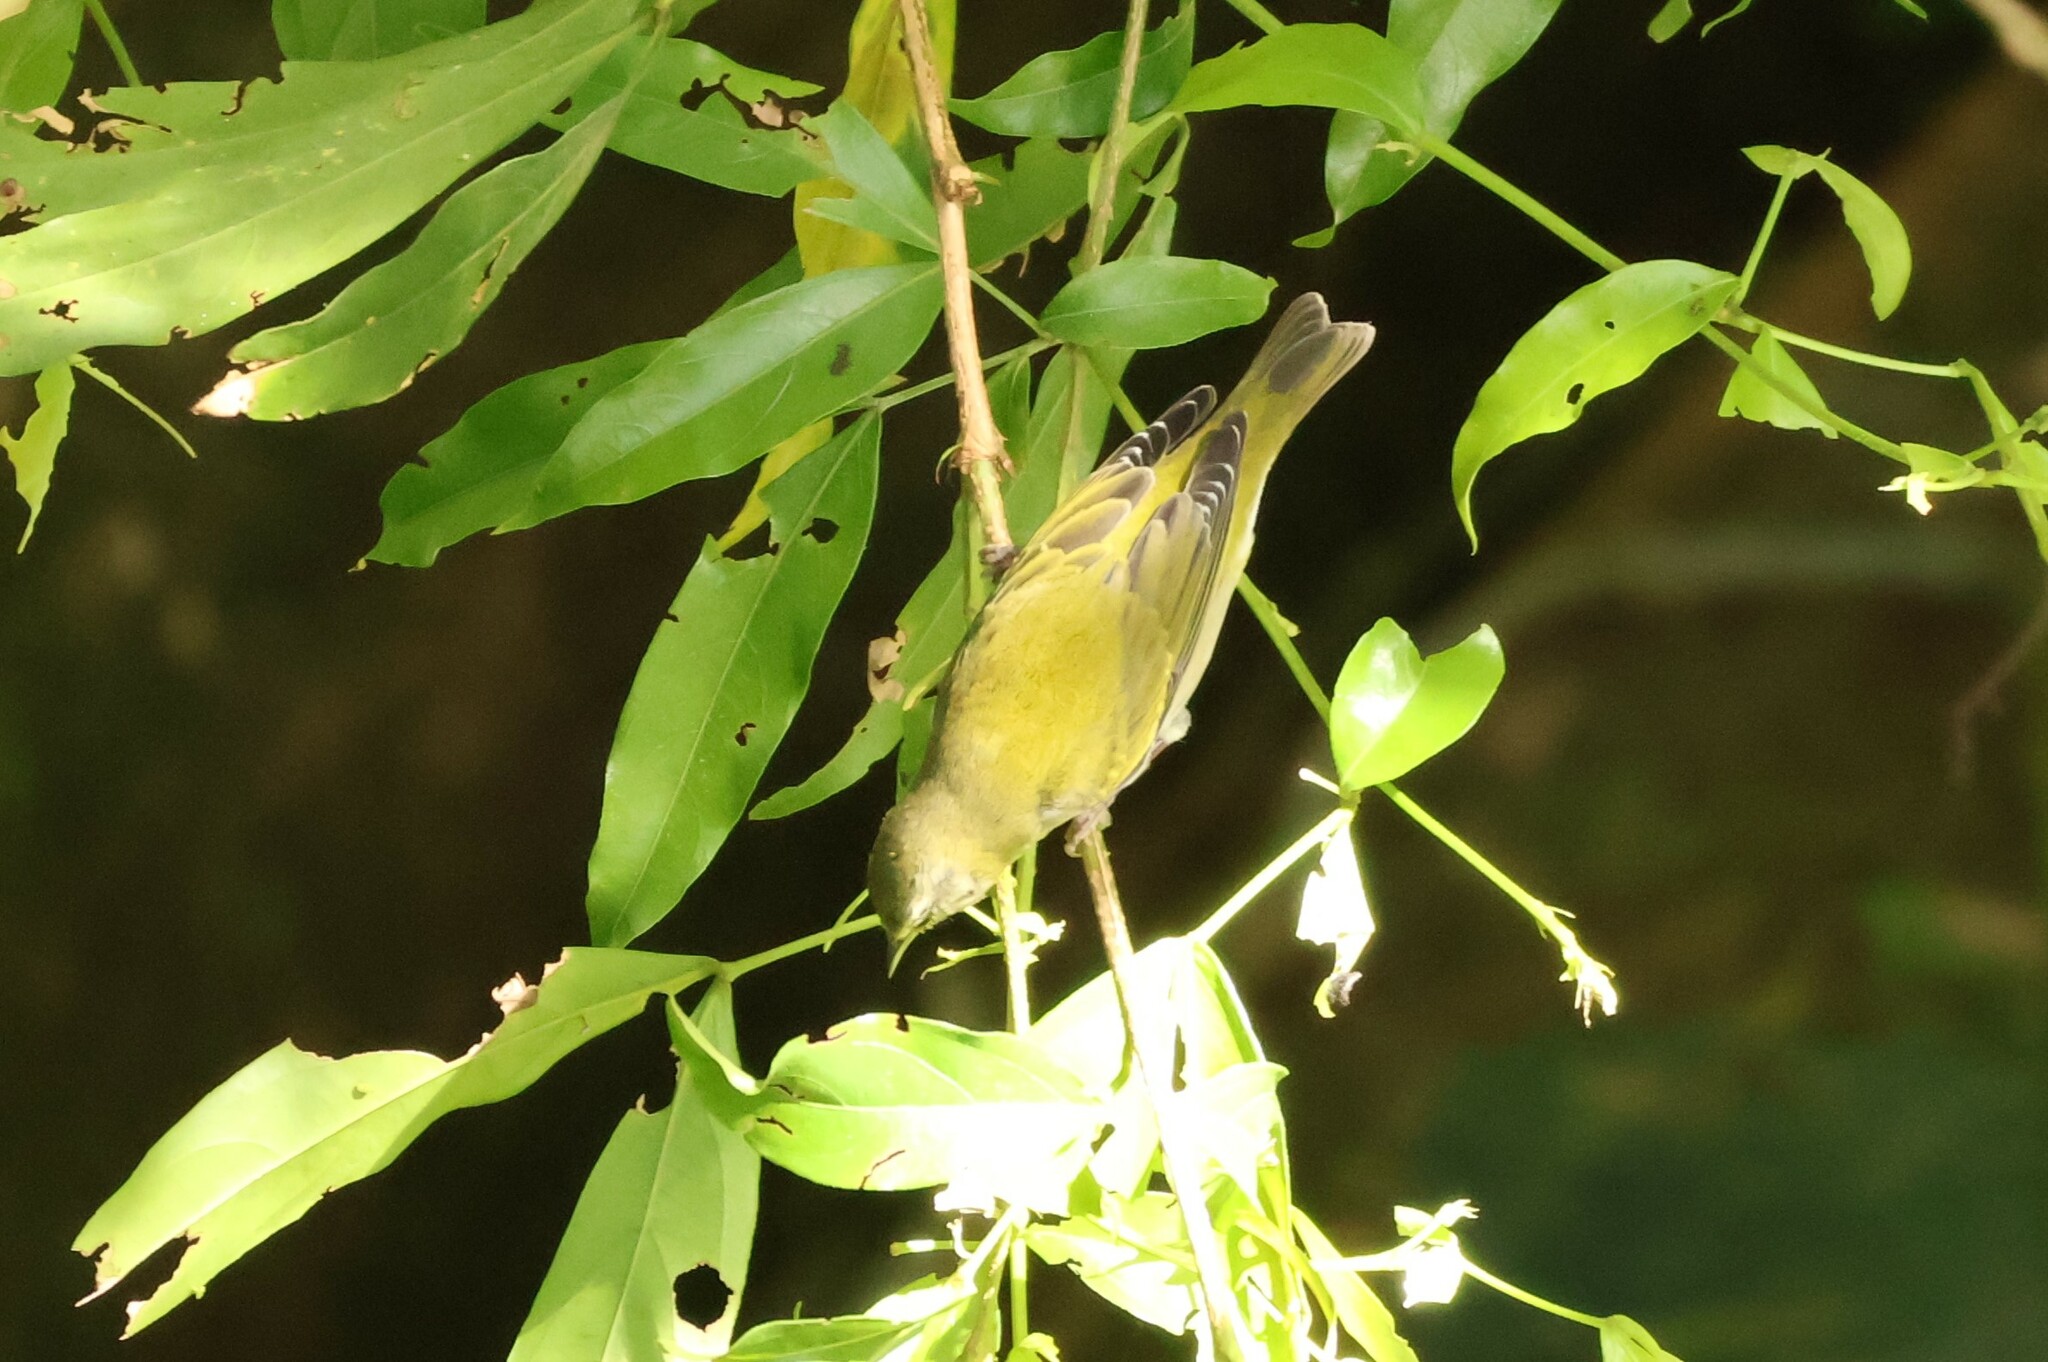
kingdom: Animalia
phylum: Chordata
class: Aves
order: Passeriformes
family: Parulidae
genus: Leiothlypis
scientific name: Leiothlypis peregrina
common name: Tennessee warbler
